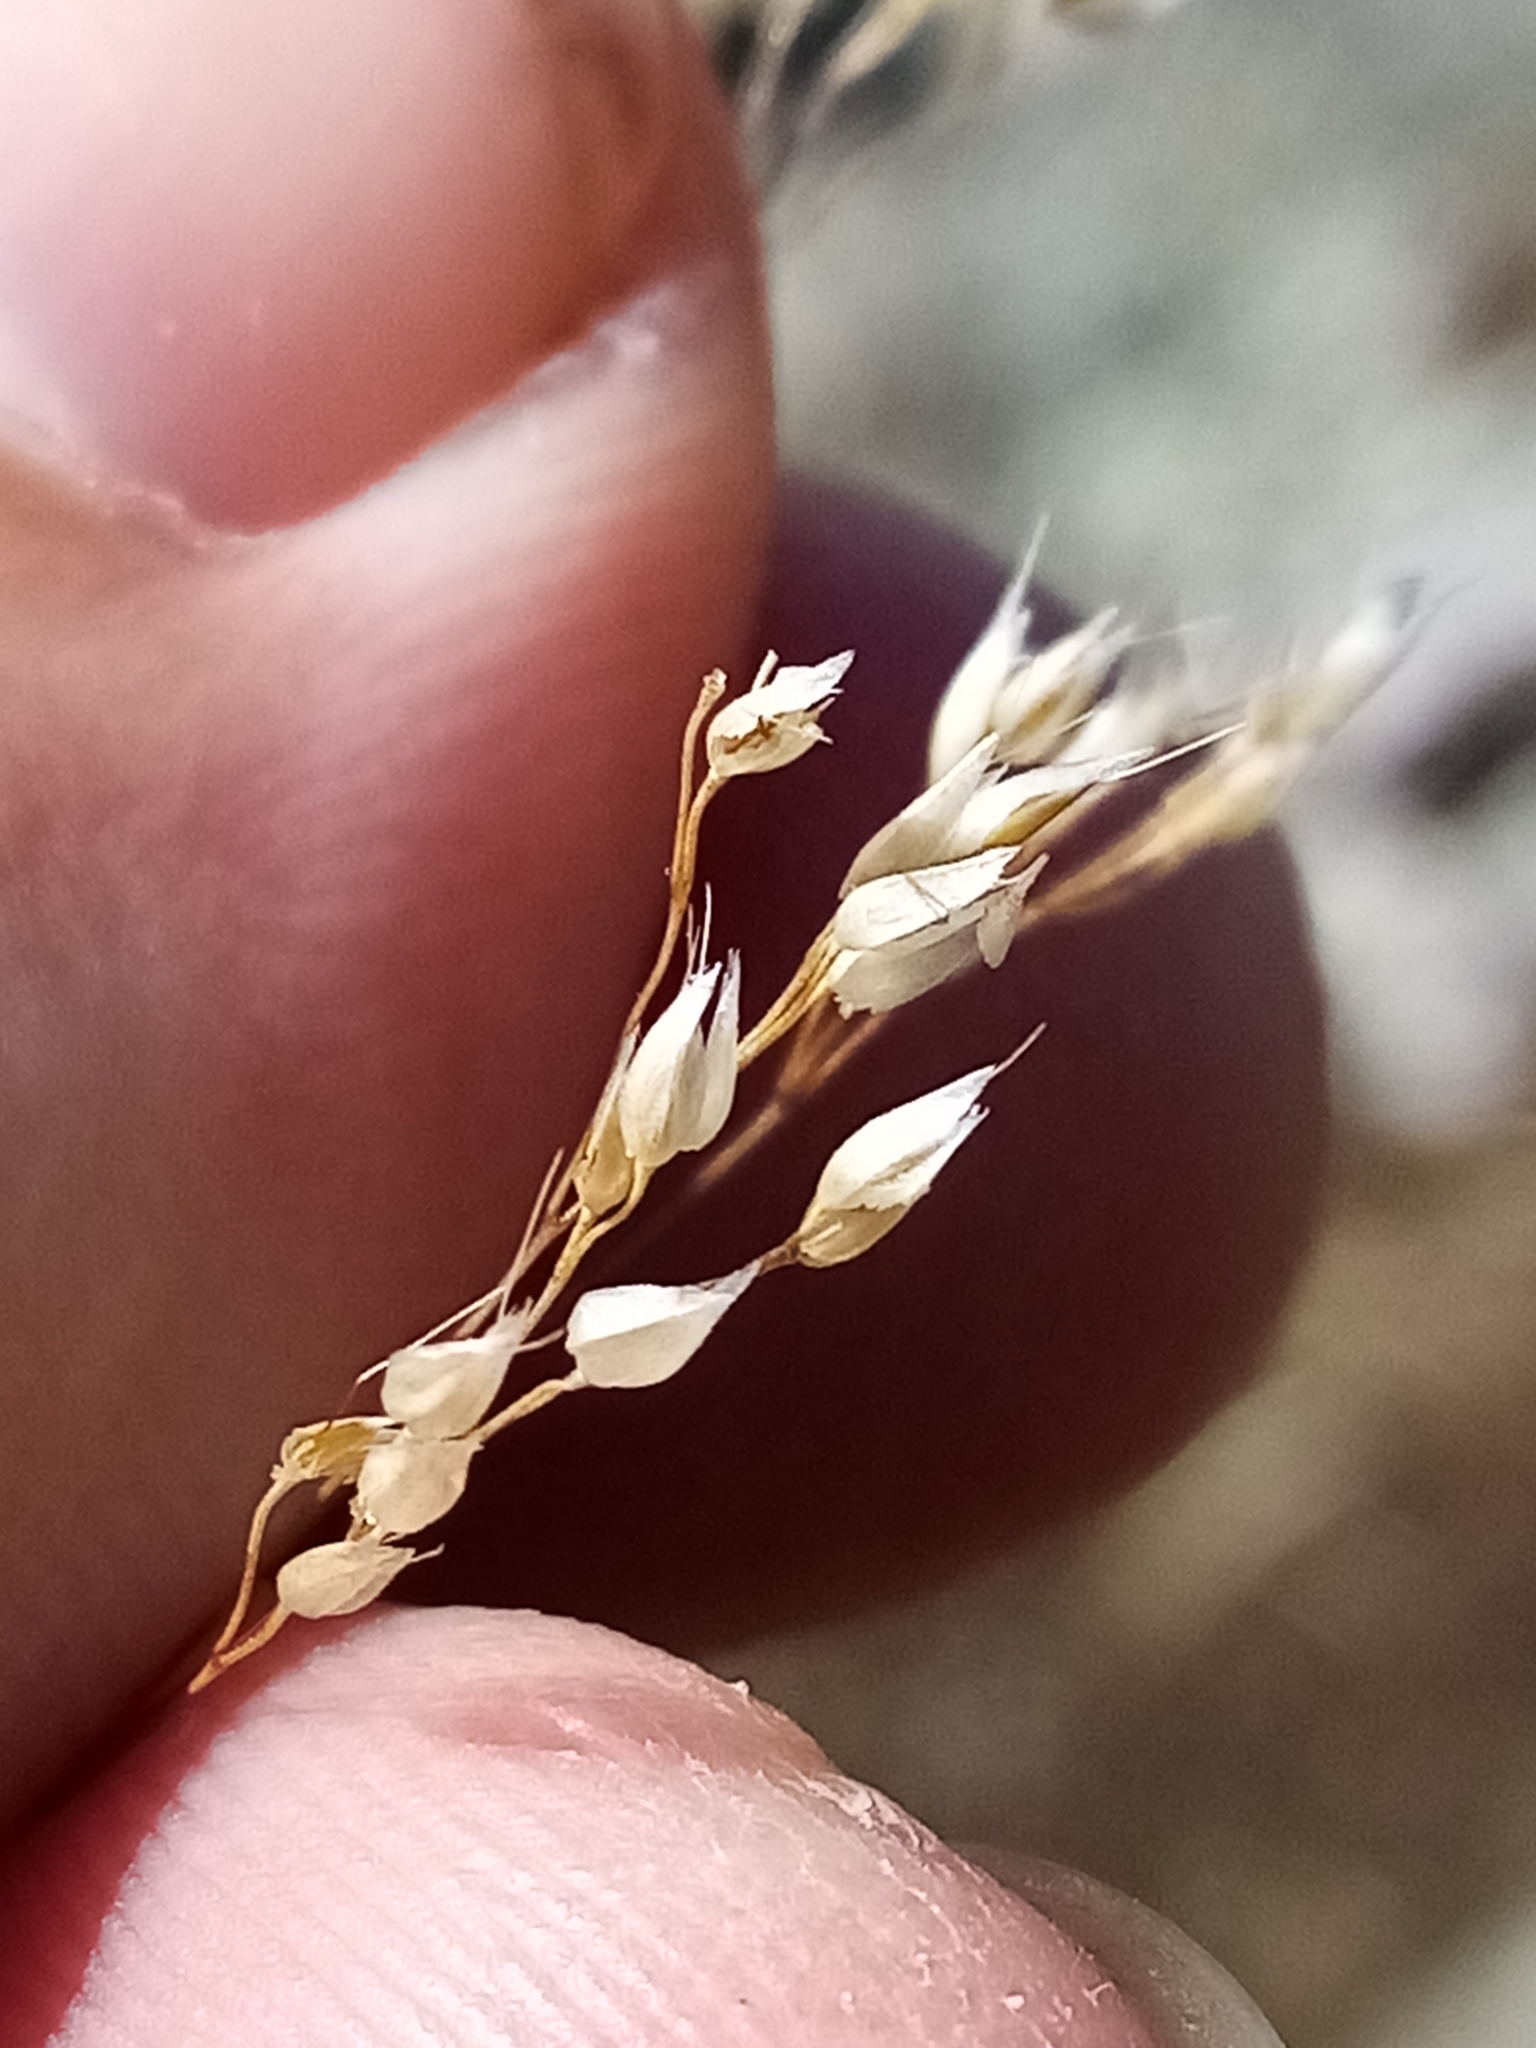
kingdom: Plantae
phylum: Tracheophyta
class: Liliopsida
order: Poales
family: Poaceae
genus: Aira
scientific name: Aira caryophyllea
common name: Silver hairgrass
